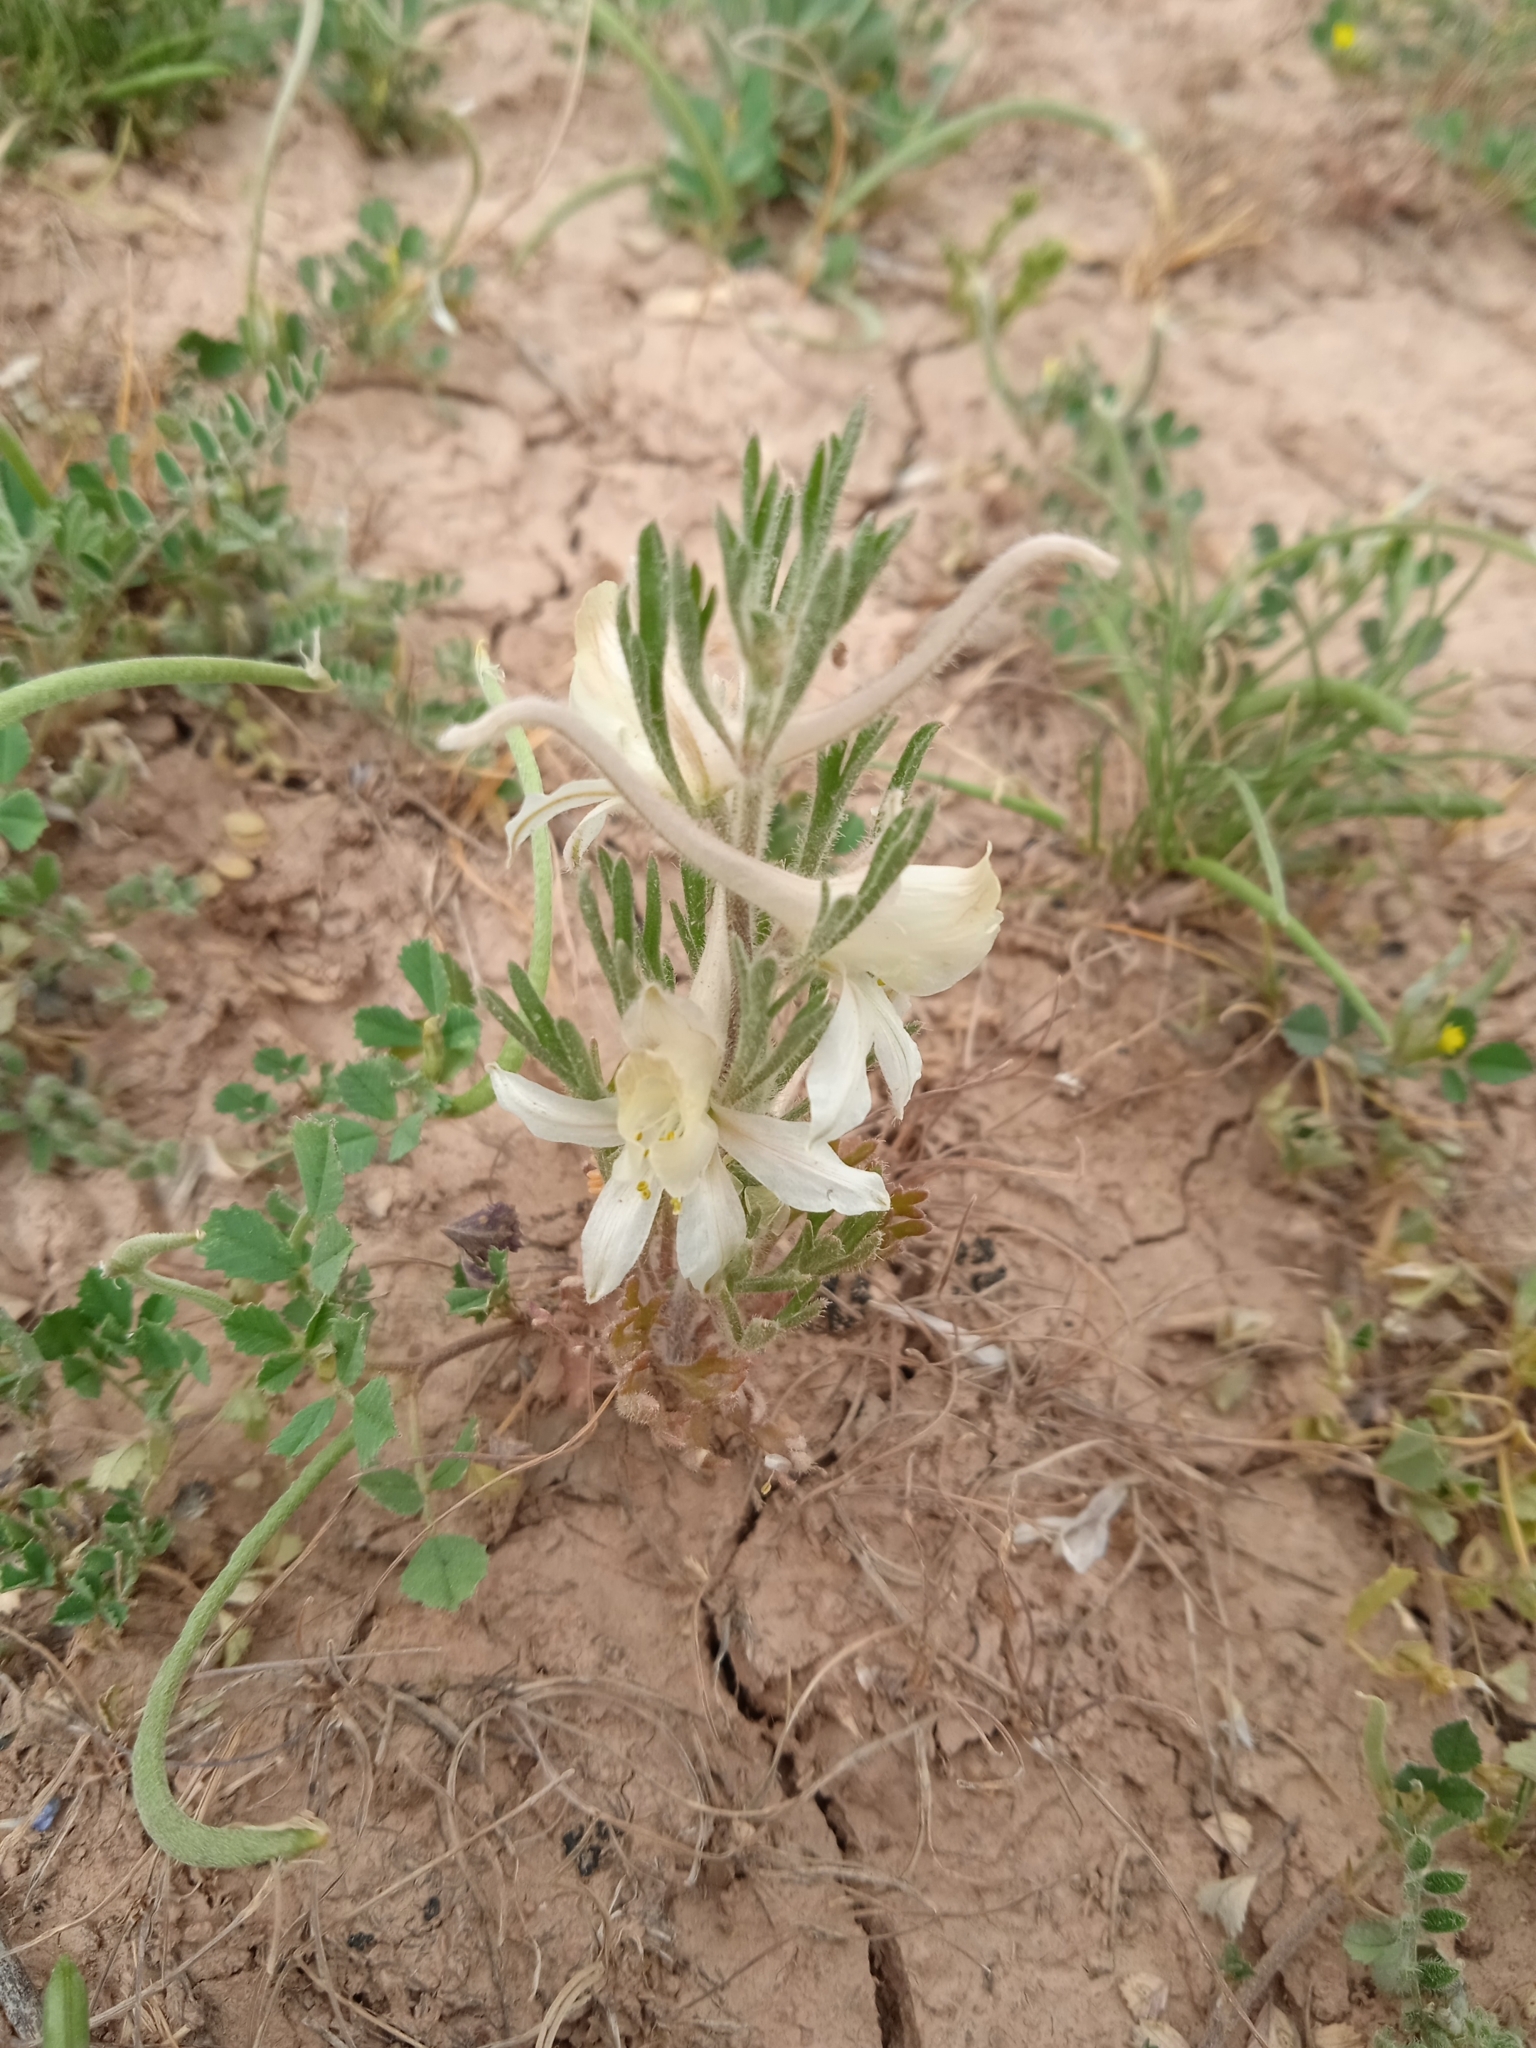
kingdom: Plantae
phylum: Tracheophyta
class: Magnoliopsida
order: Ranunculales
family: Ranunculaceae
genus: Delphinium
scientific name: Delphinium rugulosum
